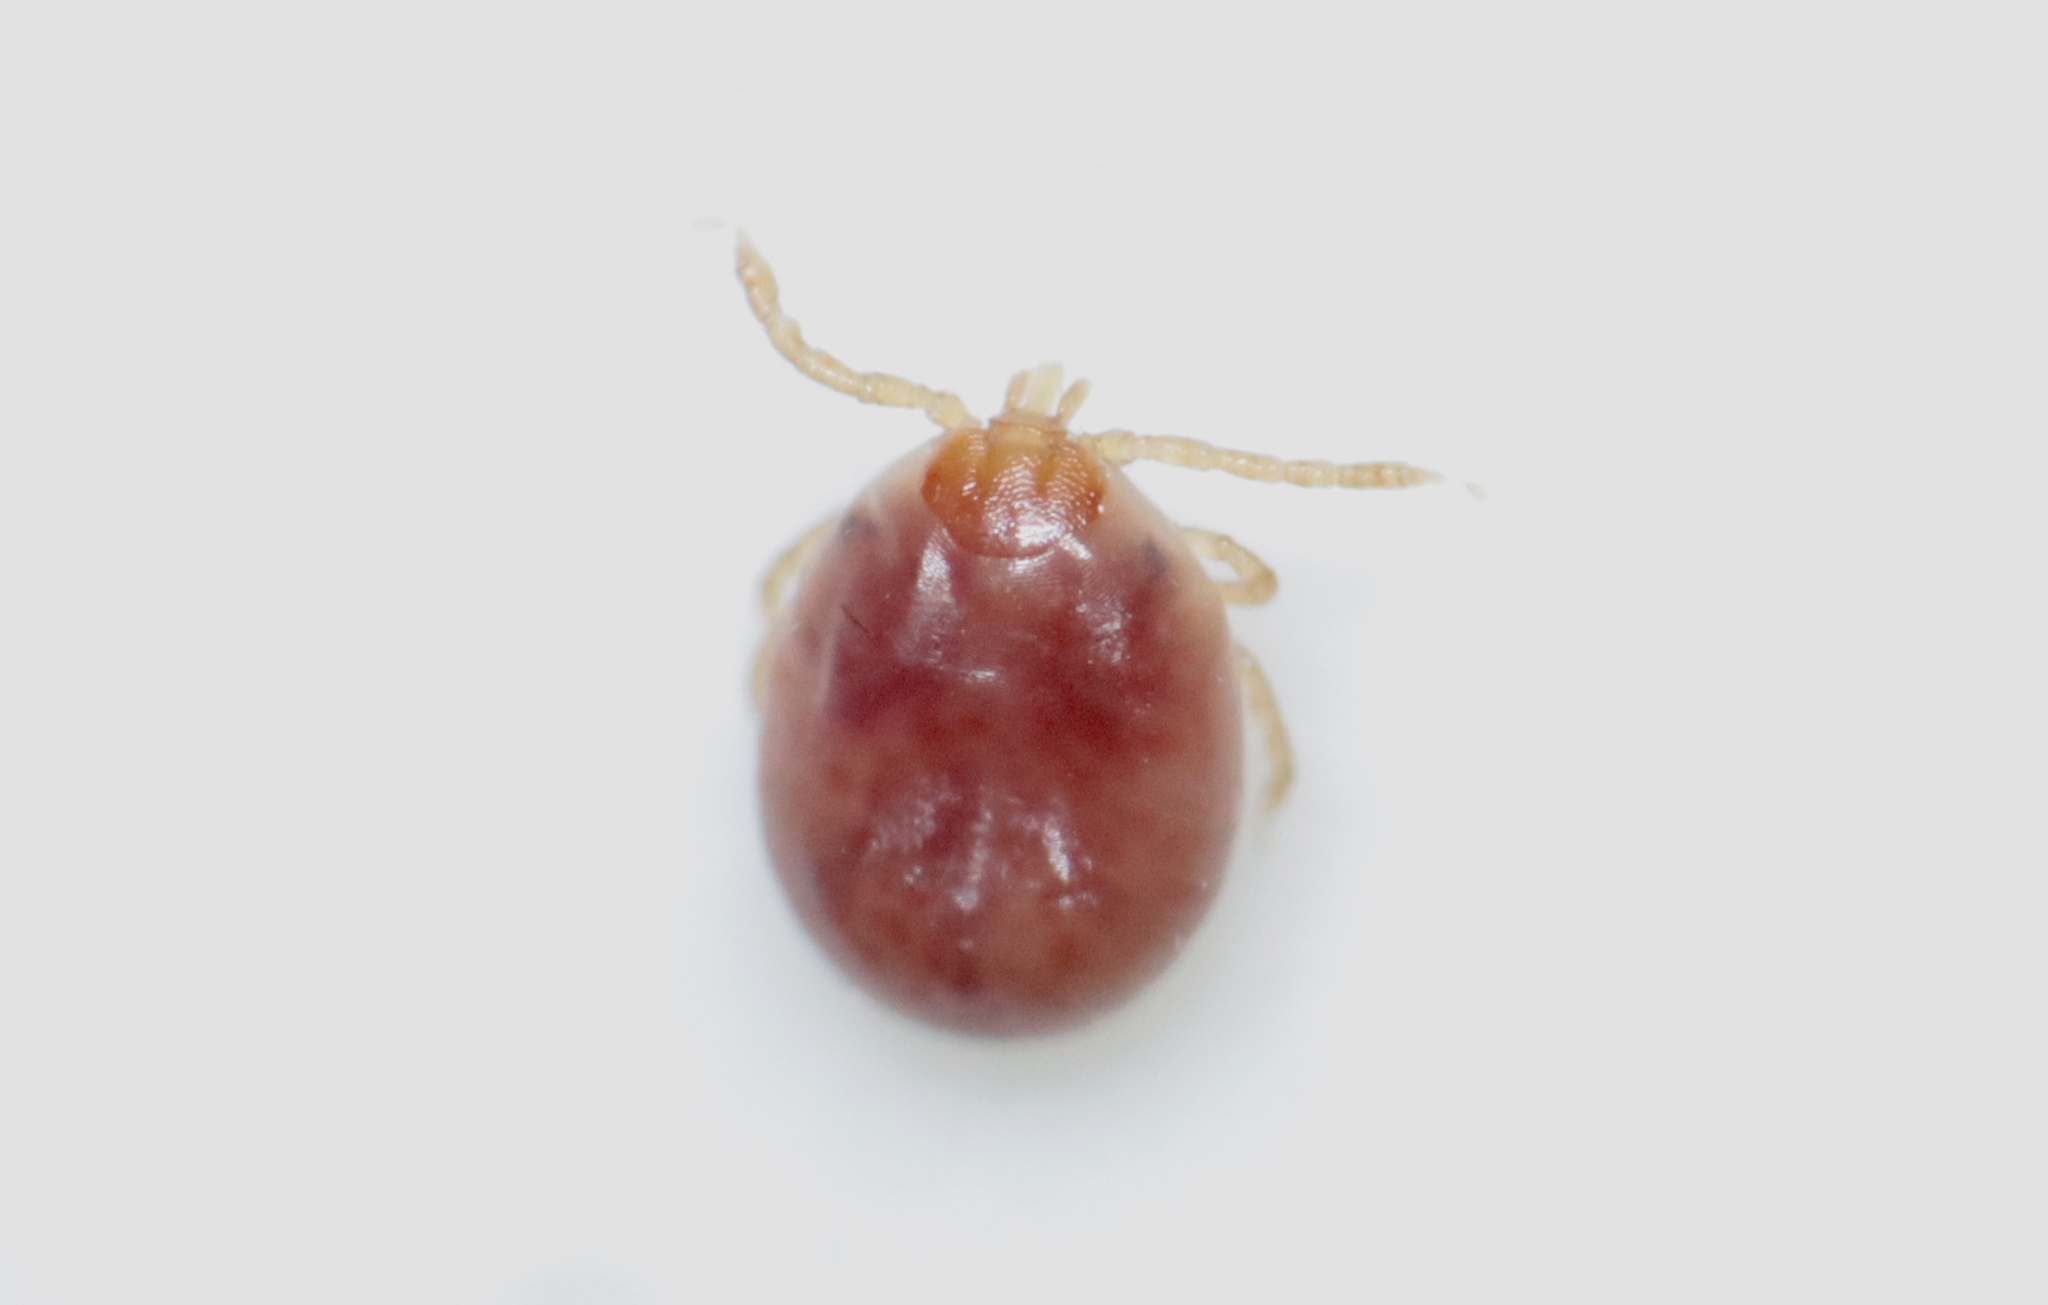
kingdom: Animalia
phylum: Arthropoda
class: Arachnida
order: Ixodida
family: Ixodidae
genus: Amblyomma
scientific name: Amblyomma americanum
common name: Lone star tick
